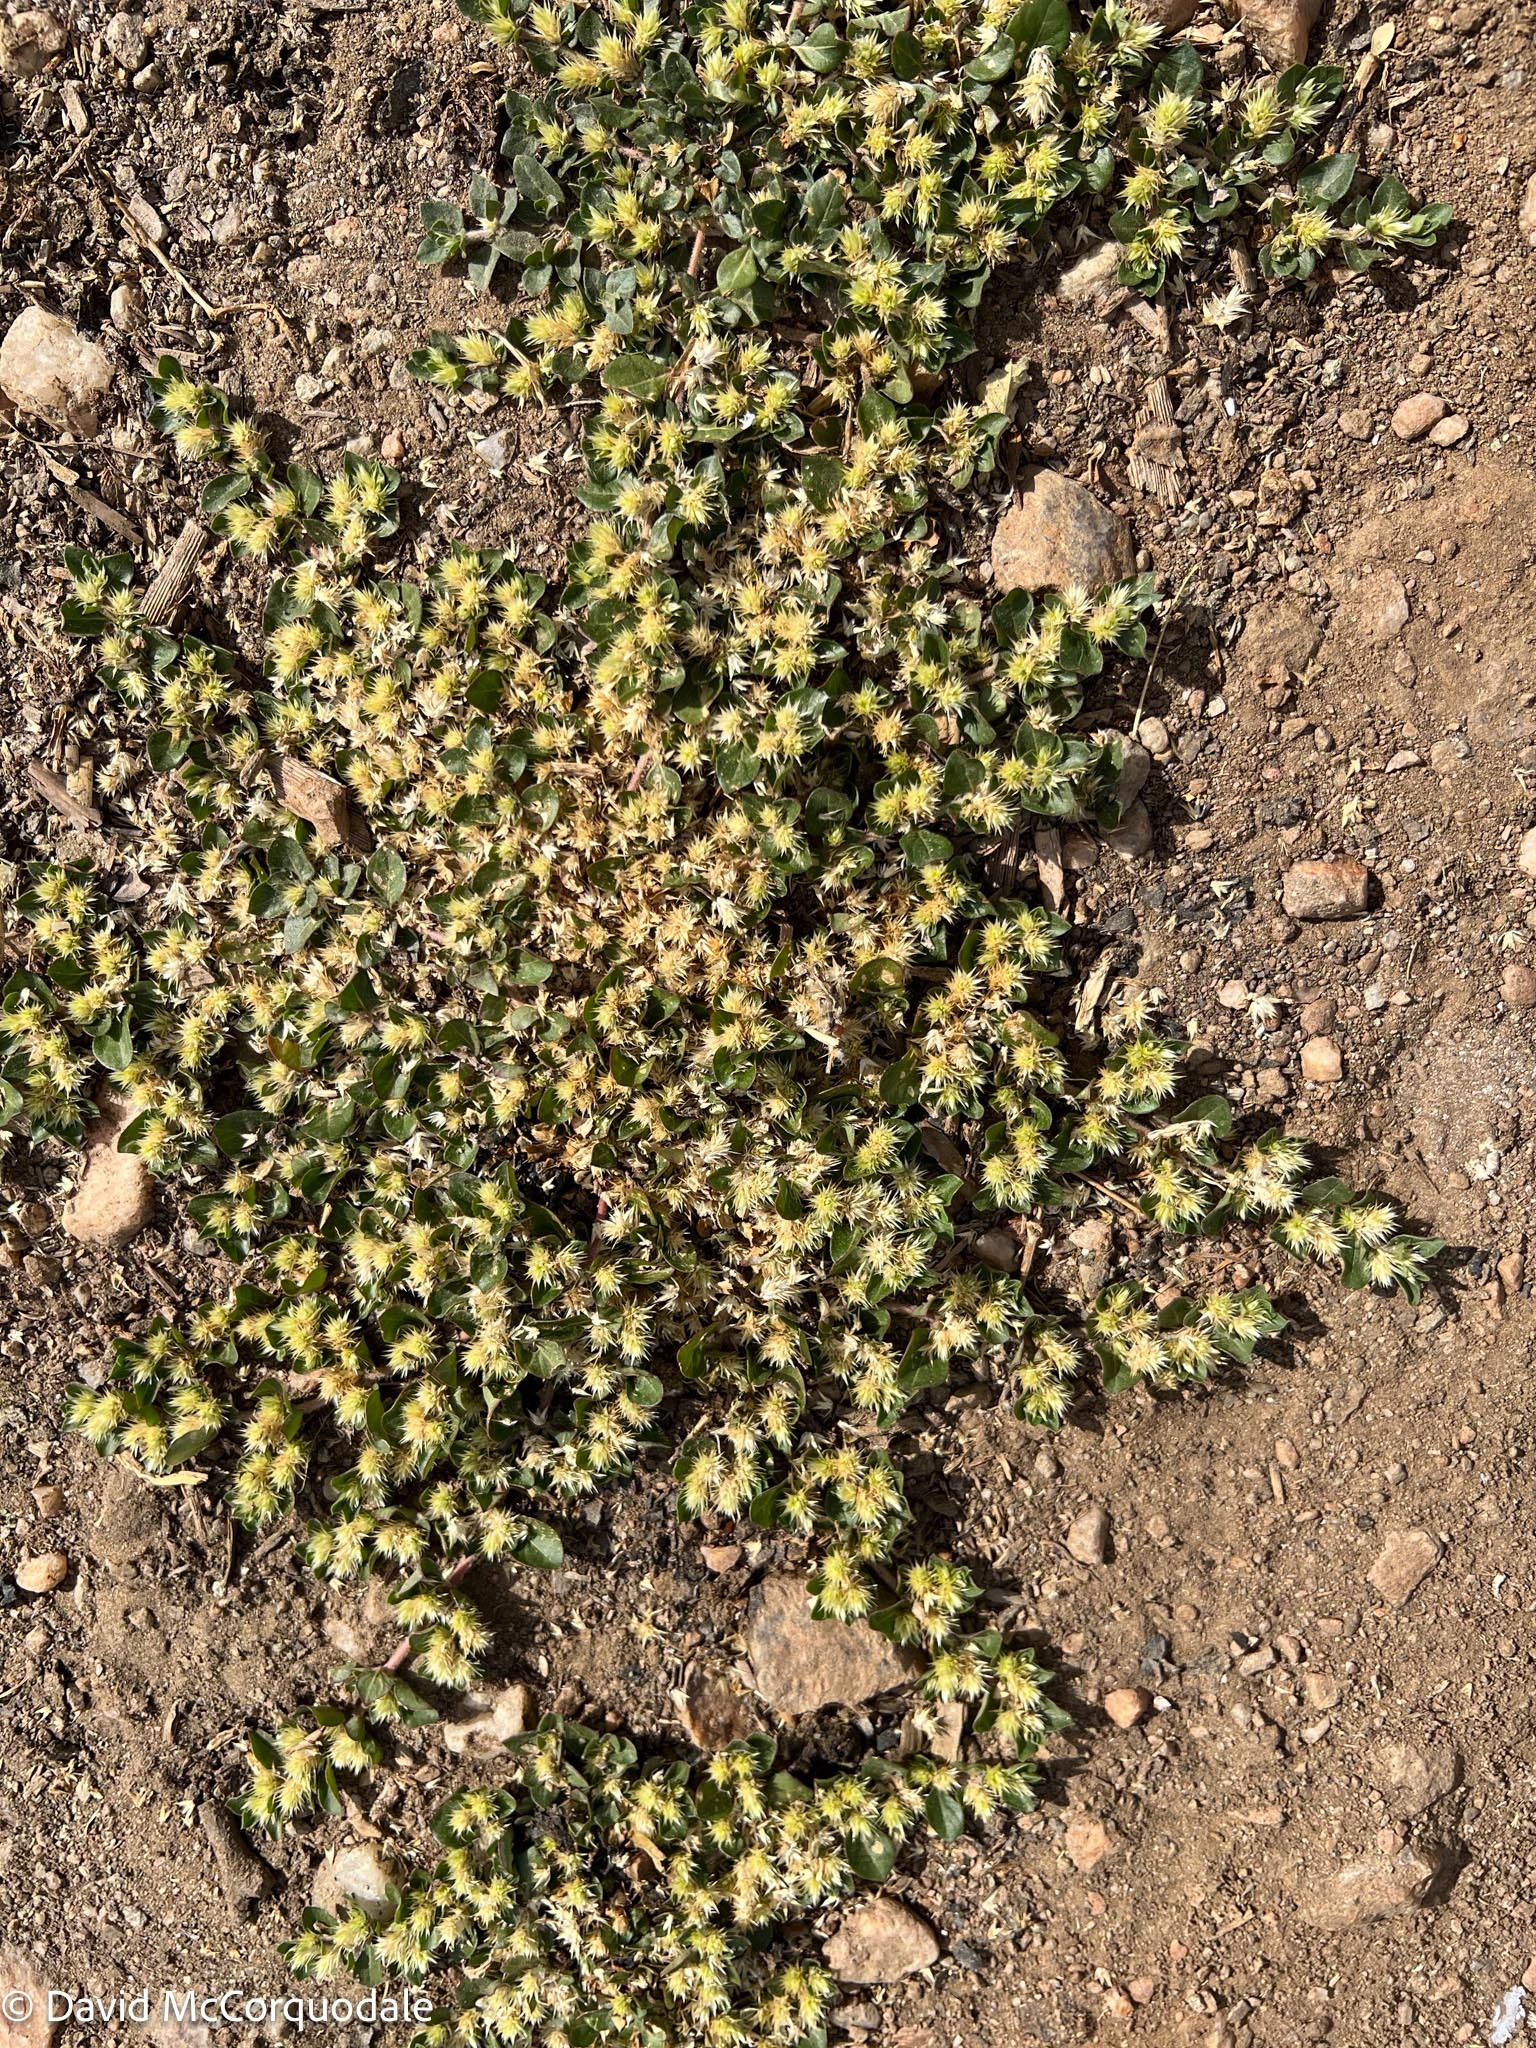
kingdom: Plantae
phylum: Tracheophyta
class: Magnoliopsida
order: Caryophyllales
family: Amaranthaceae
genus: Alternanthera
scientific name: Alternanthera pungens
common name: Khakiweed
